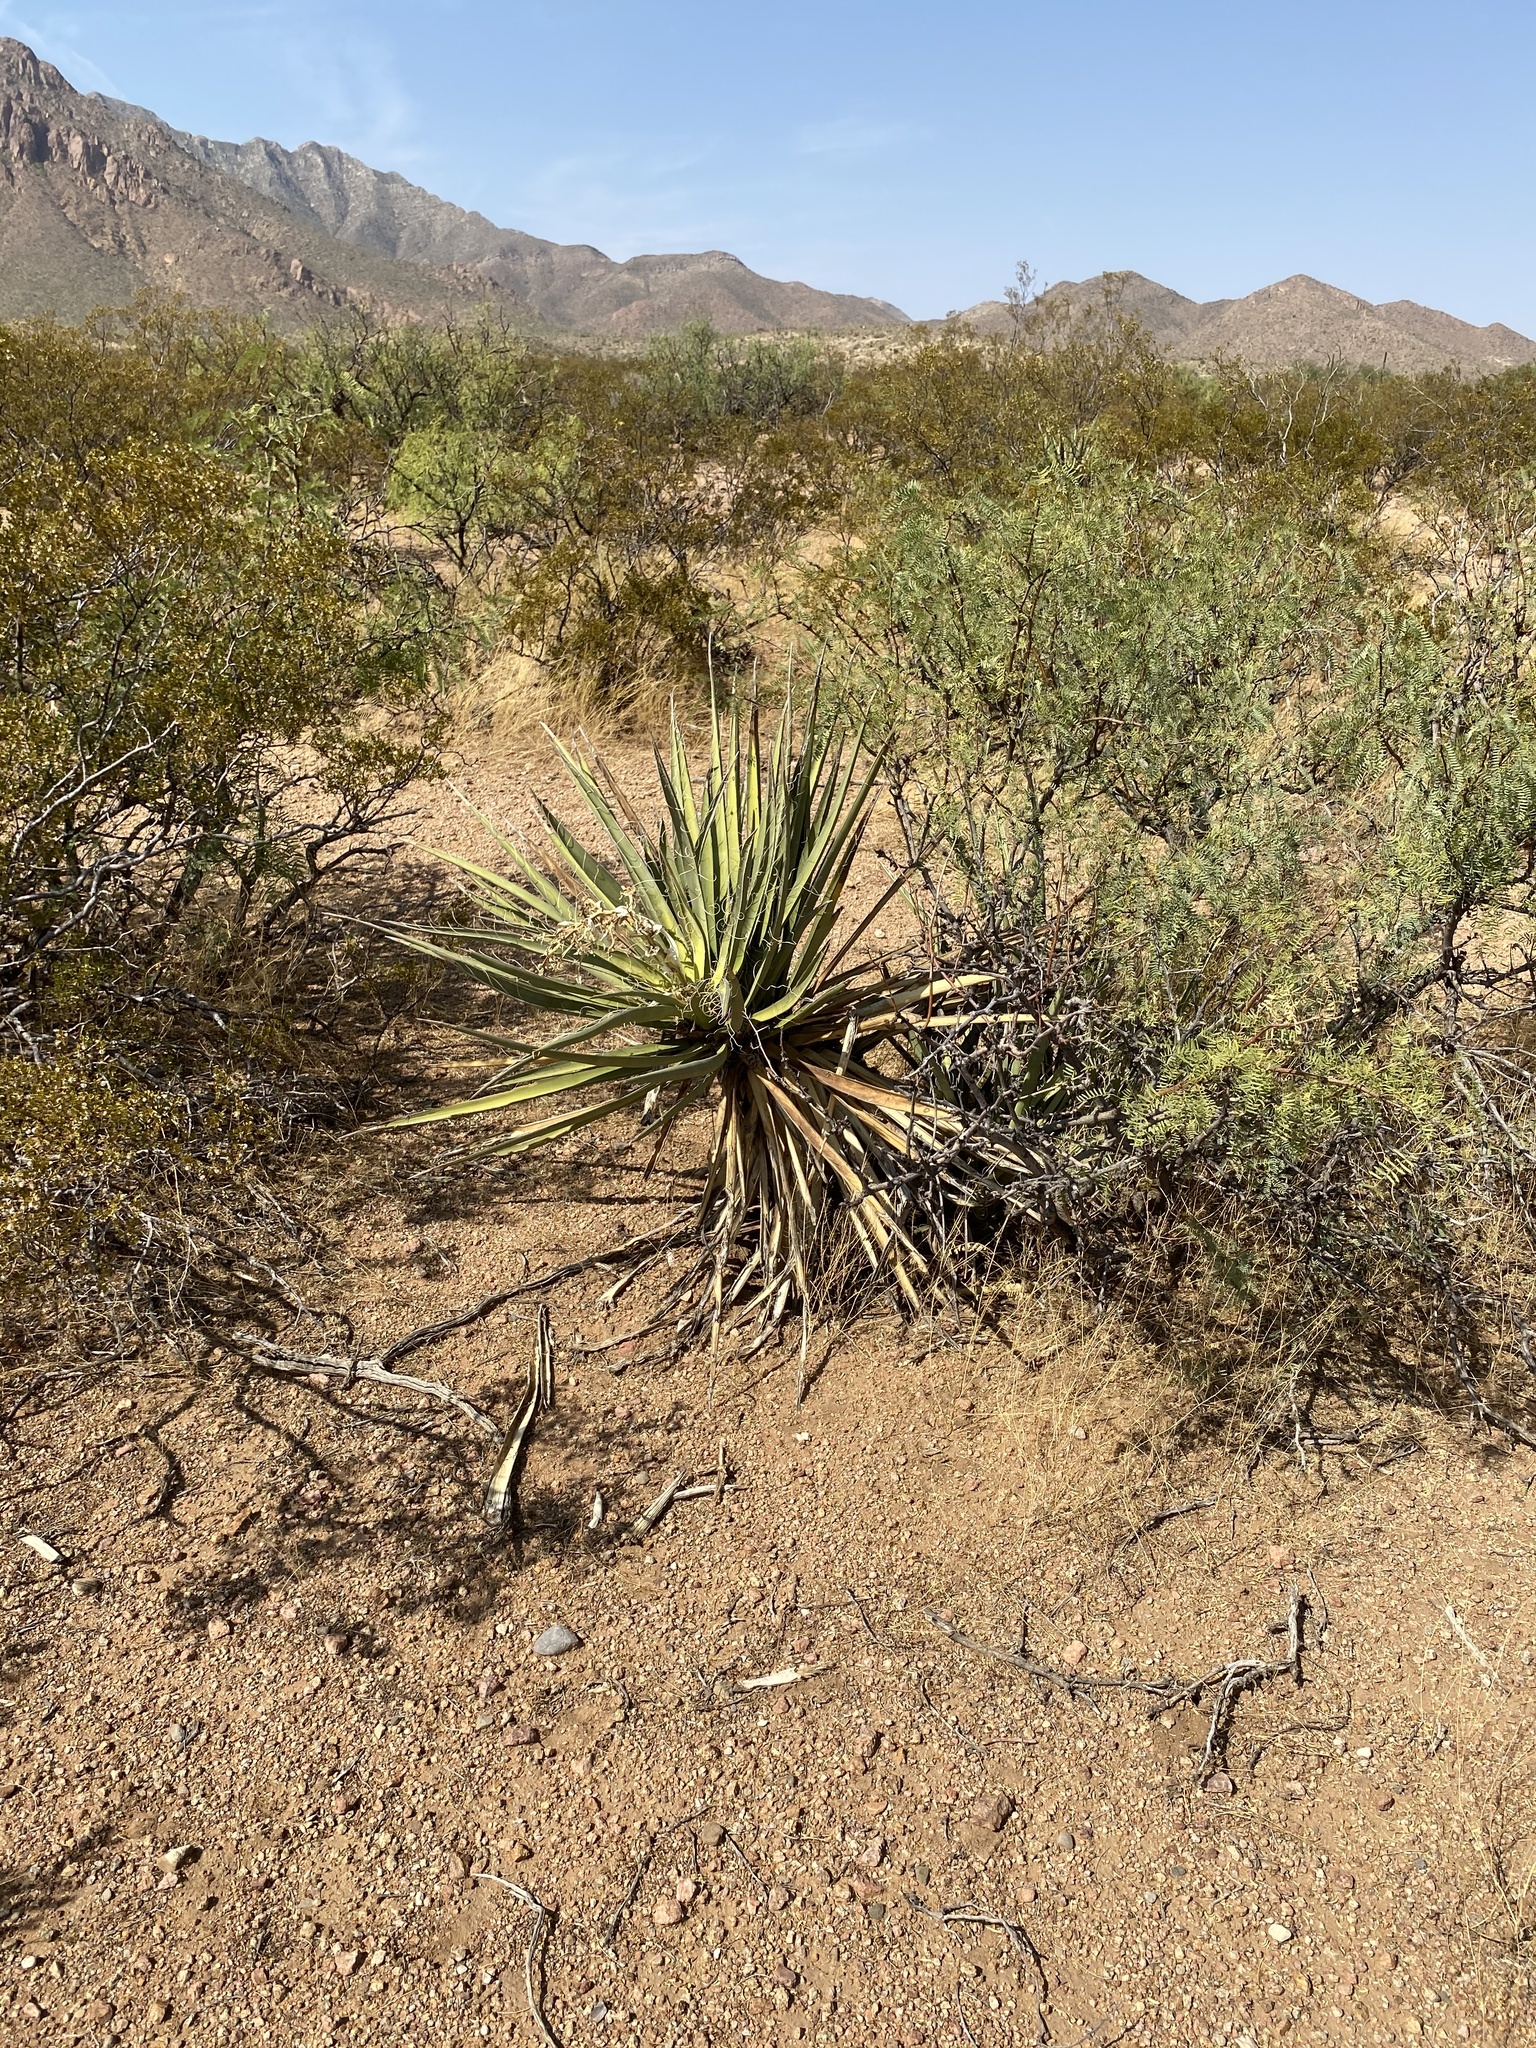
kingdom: Plantae
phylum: Tracheophyta
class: Liliopsida
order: Asparagales
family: Asparagaceae
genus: Yucca
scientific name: Yucca baccata
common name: Banana yucca
